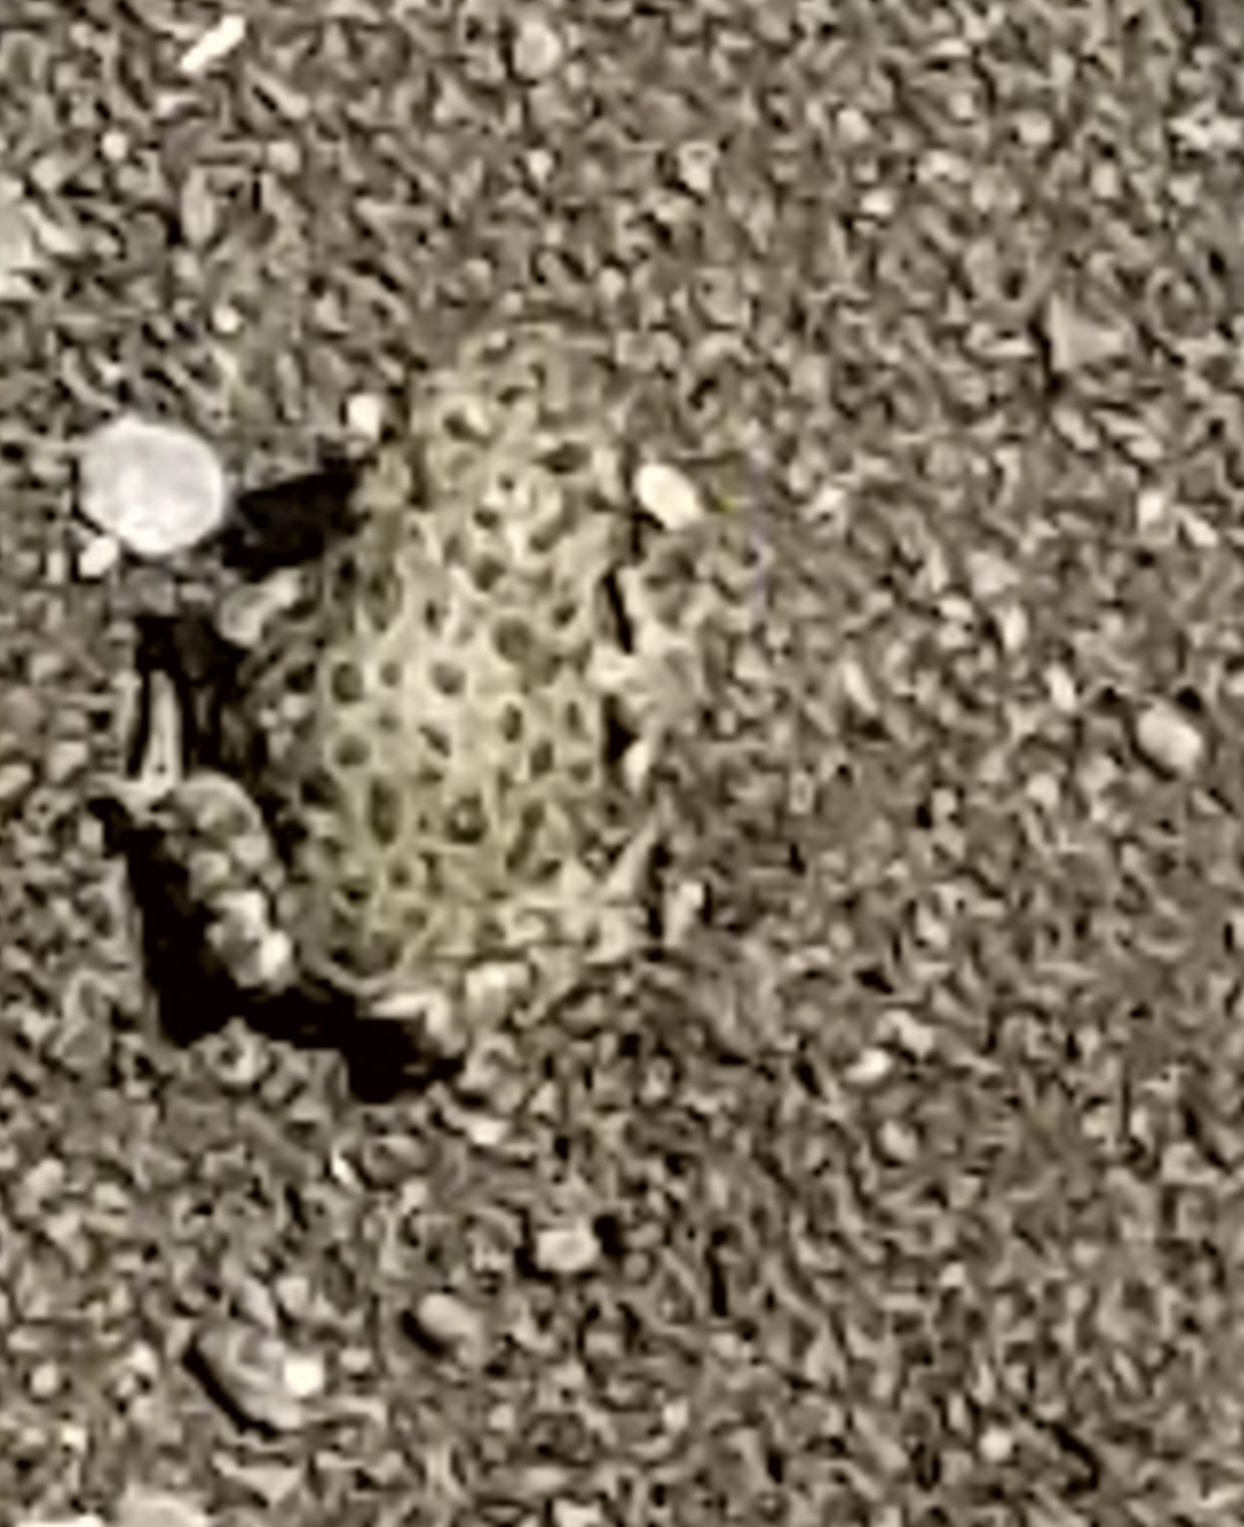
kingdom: Animalia
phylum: Chordata
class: Amphibia
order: Anura
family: Bufonidae
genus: Anaxyrus
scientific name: Anaxyrus boreas
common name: Western toad
